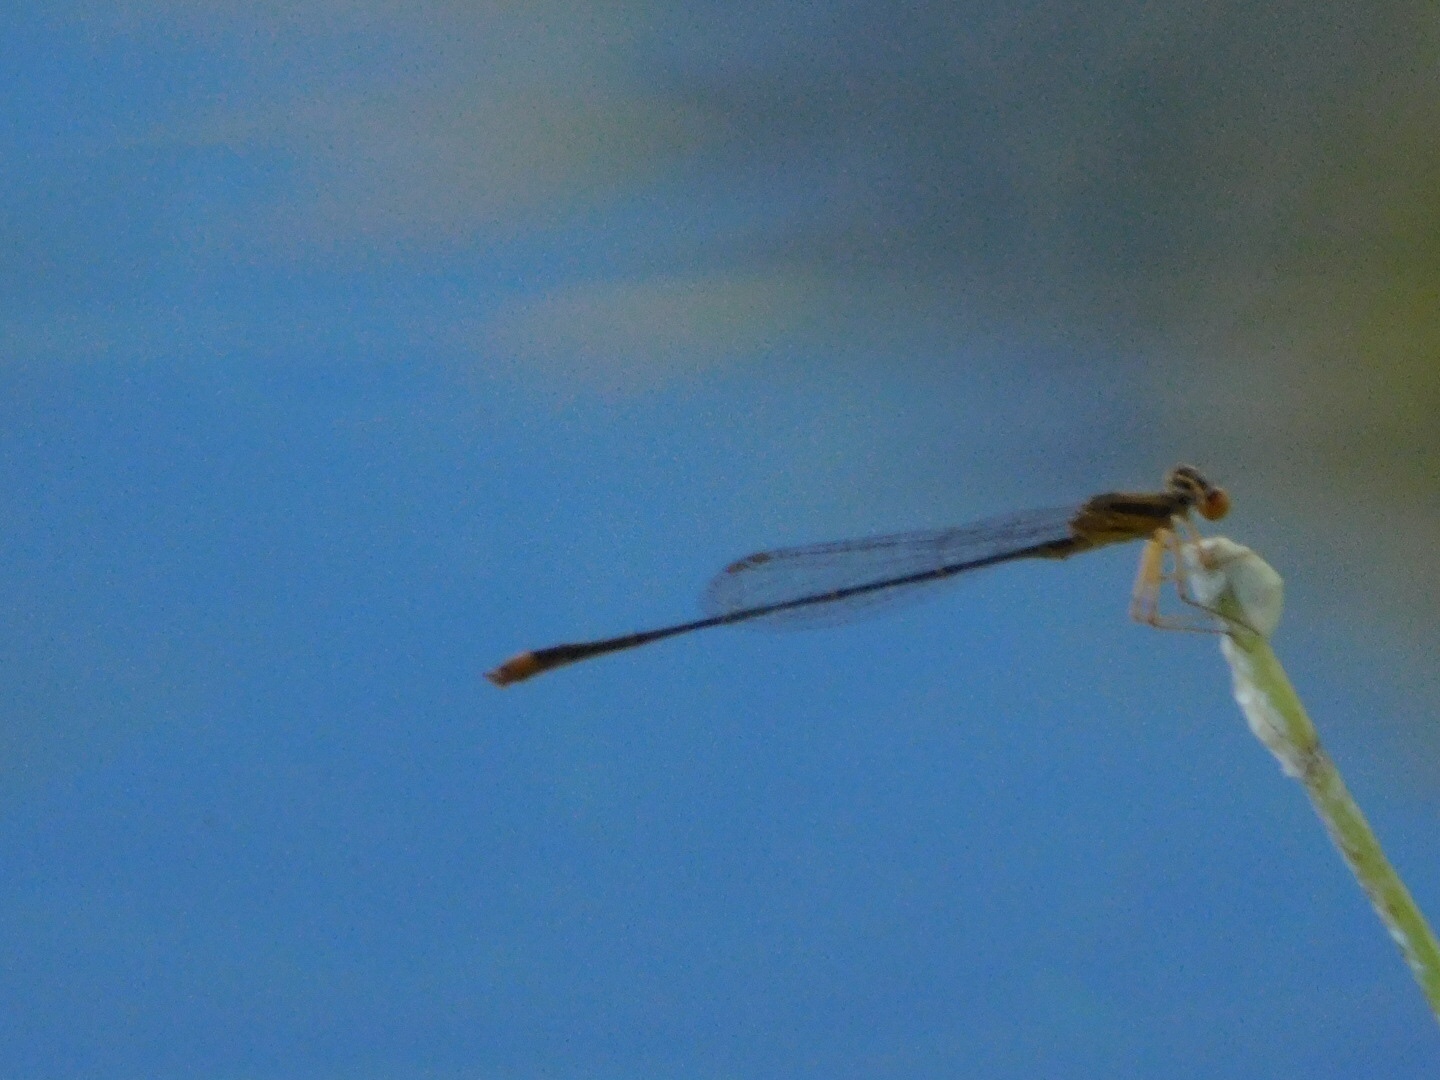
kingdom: Animalia
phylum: Arthropoda
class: Insecta
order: Odonata
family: Coenagrionidae
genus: Enallagma
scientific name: Enallagma pollutum
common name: Florida bluet
